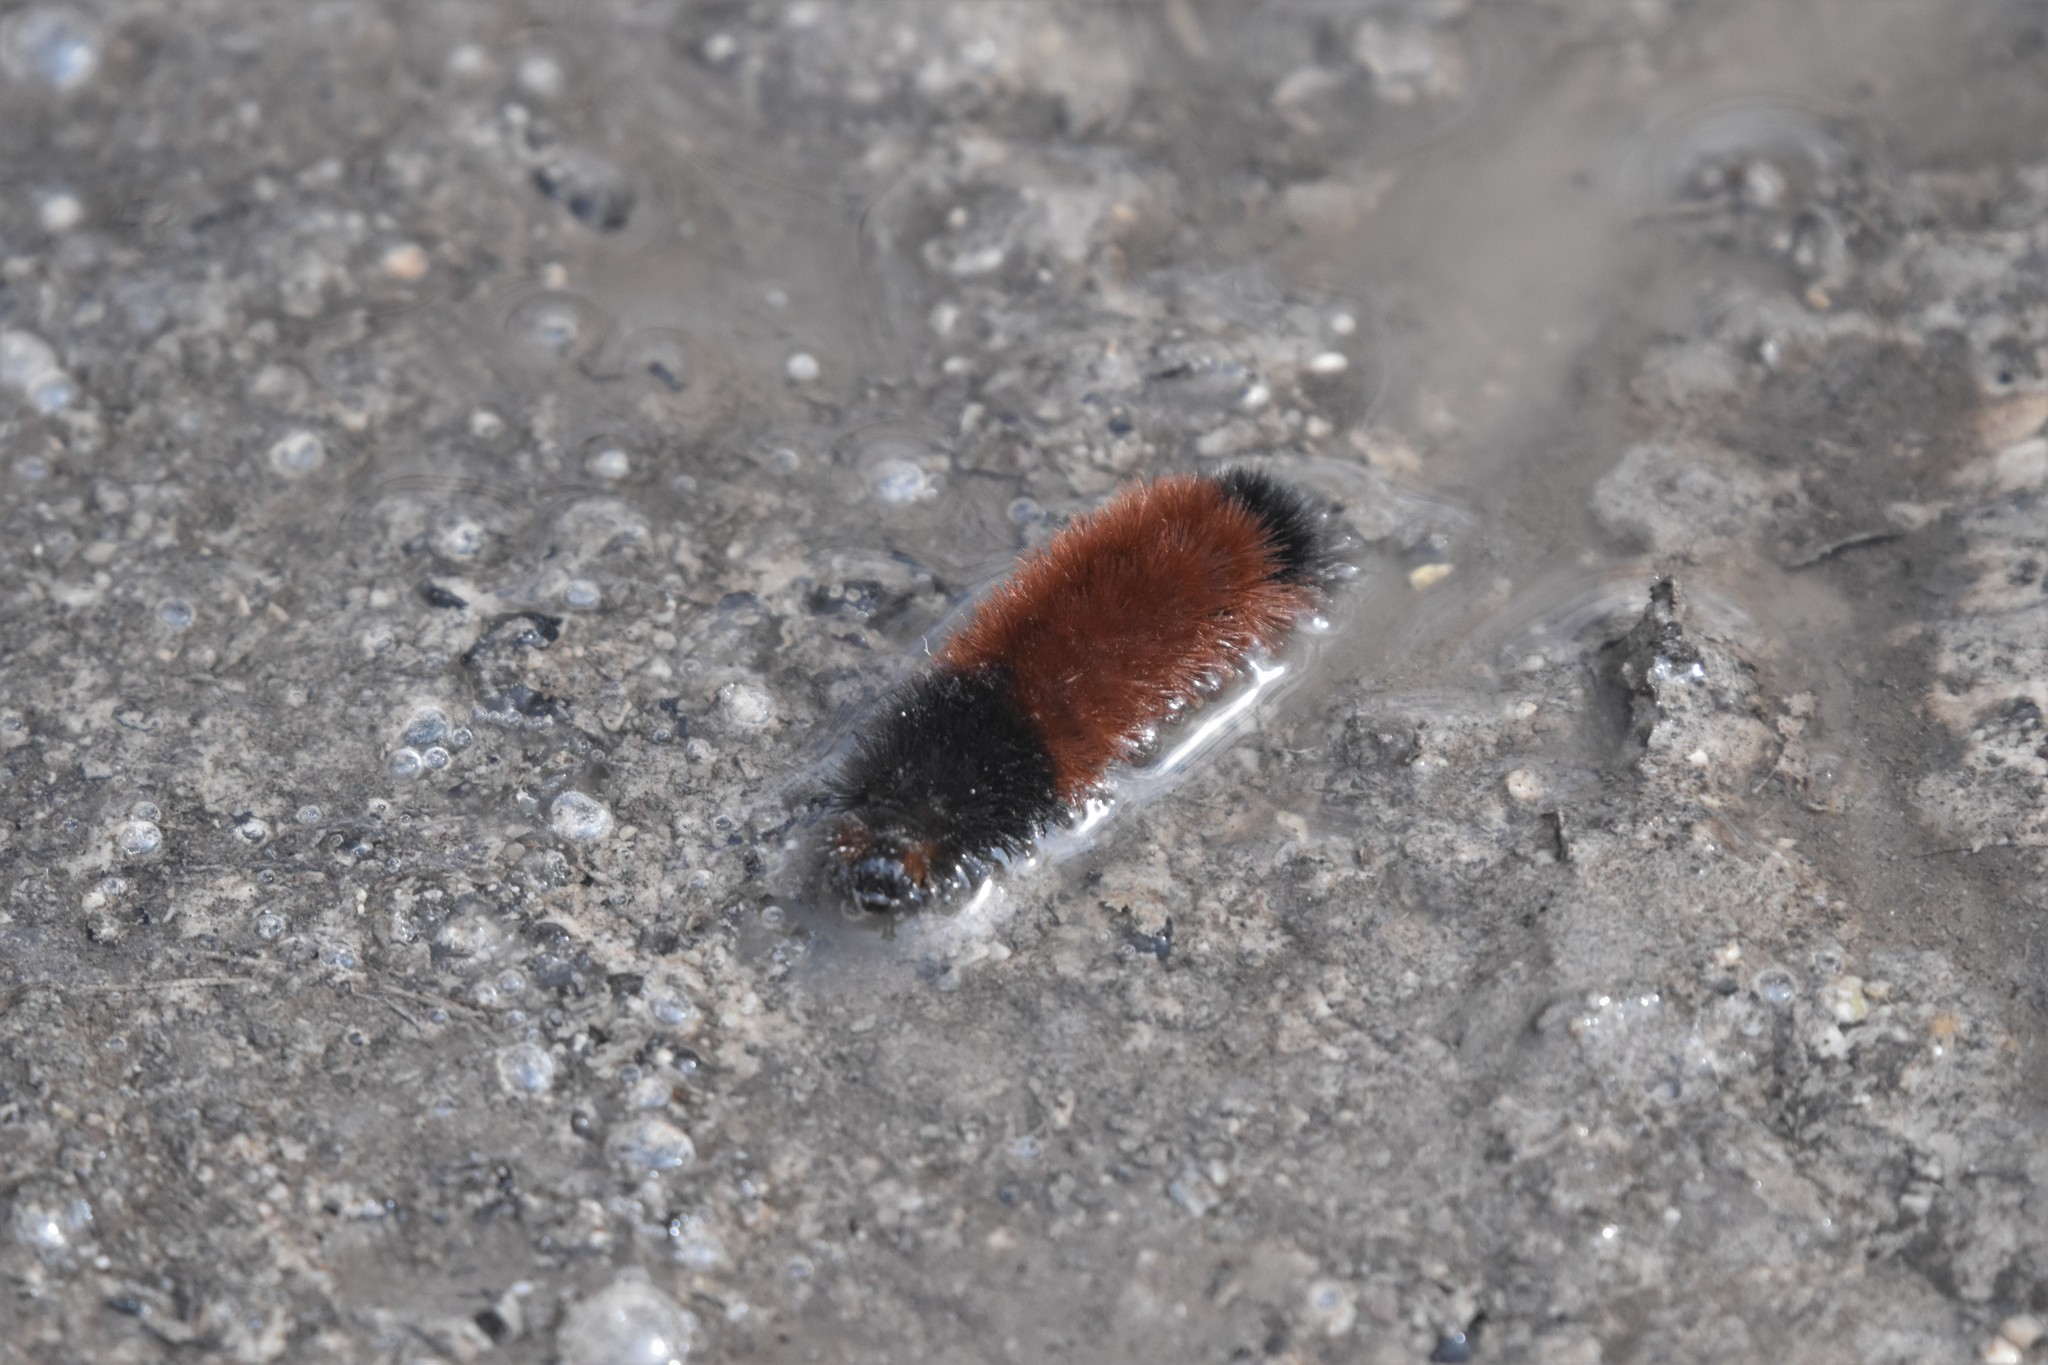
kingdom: Animalia
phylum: Arthropoda
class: Insecta
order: Lepidoptera
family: Erebidae
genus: Pyrrharctia
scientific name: Pyrrharctia isabella
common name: Isabella tiger moth
